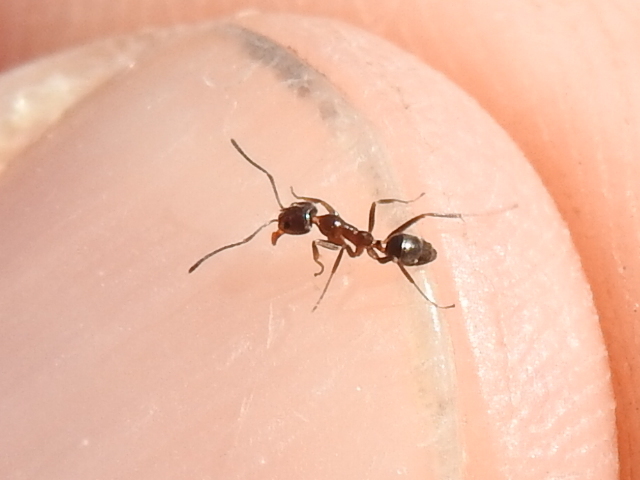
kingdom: Animalia
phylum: Arthropoda
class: Insecta
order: Hymenoptera
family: Formicidae
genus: Linepithema
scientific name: Linepithema humile
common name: Argentine ant
